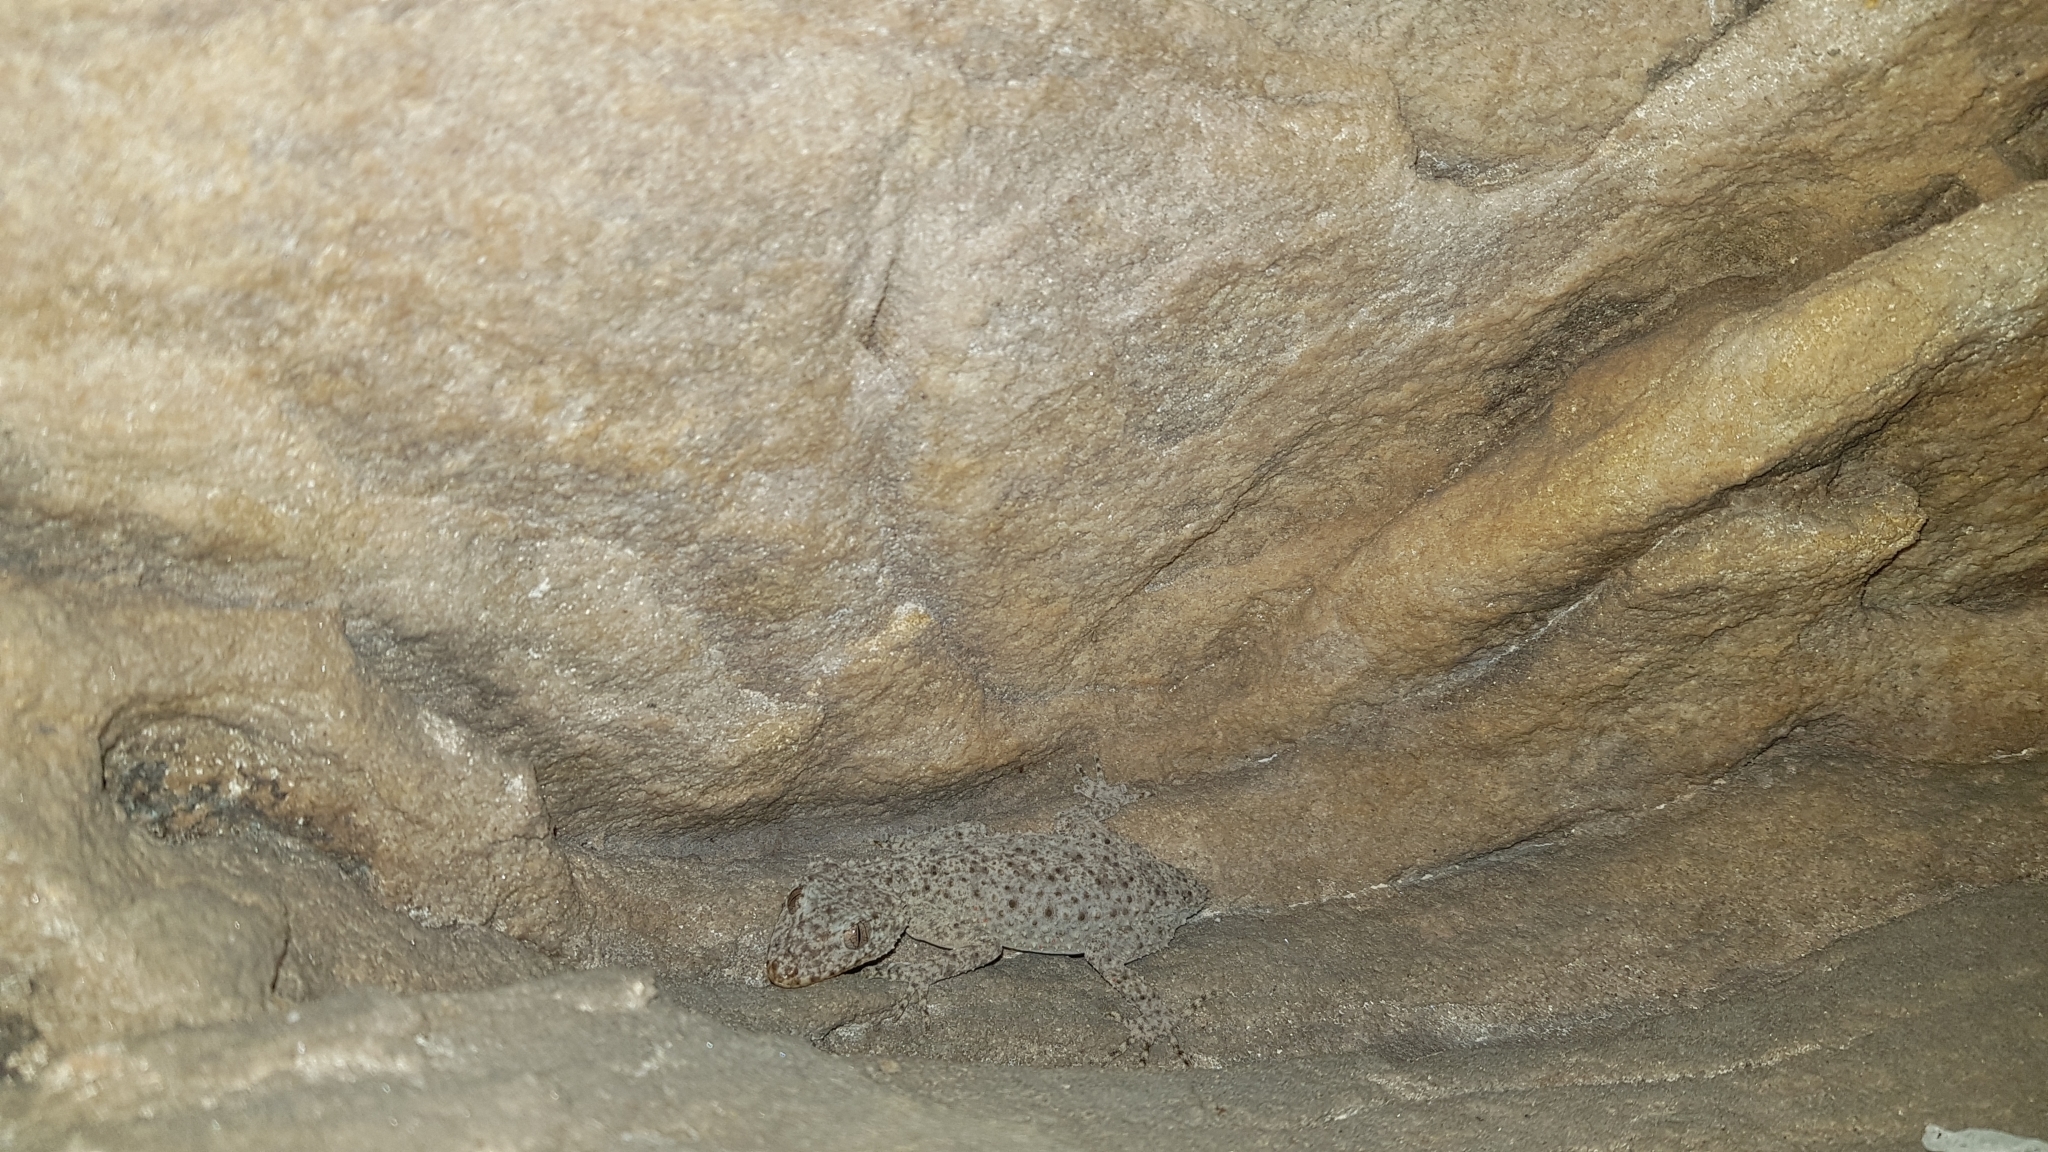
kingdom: Animalia
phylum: Chordata
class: Squamata
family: Carphodactylidae
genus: Phyllurus
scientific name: Phyllurus platurus
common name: Broad-tailed gecko
